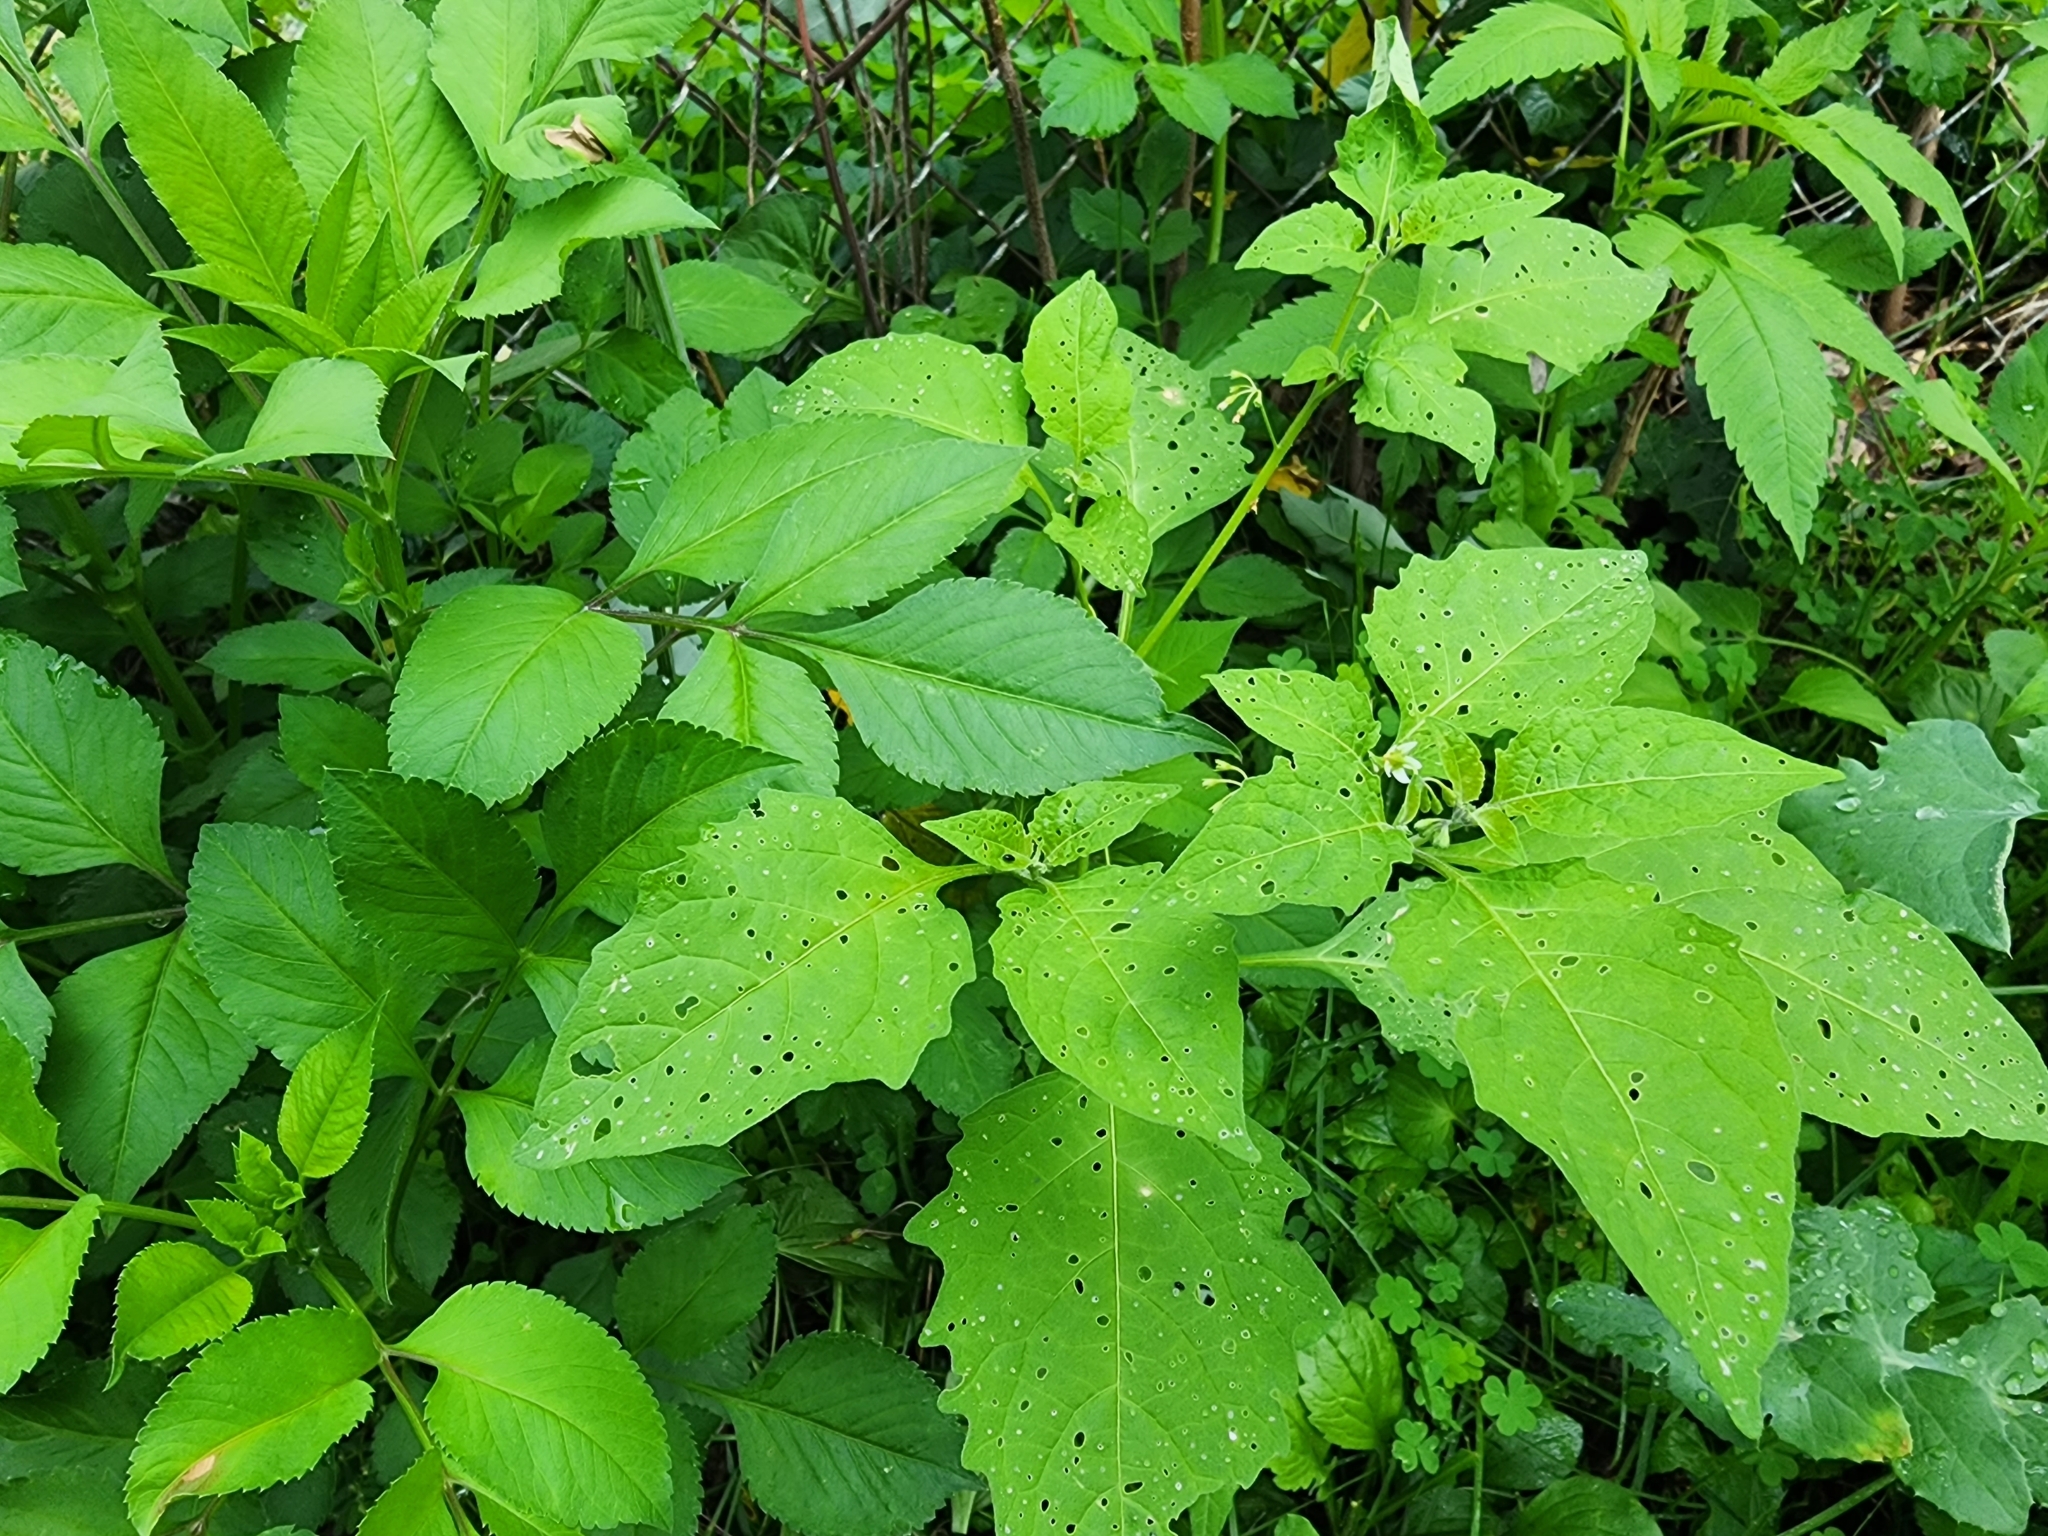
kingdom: Plantae
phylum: Tracheophyta
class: Magnoliopsida
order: Solanales
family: Solanaceae
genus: Solanum
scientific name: Solanum emulans
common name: Eastern black nightshade
